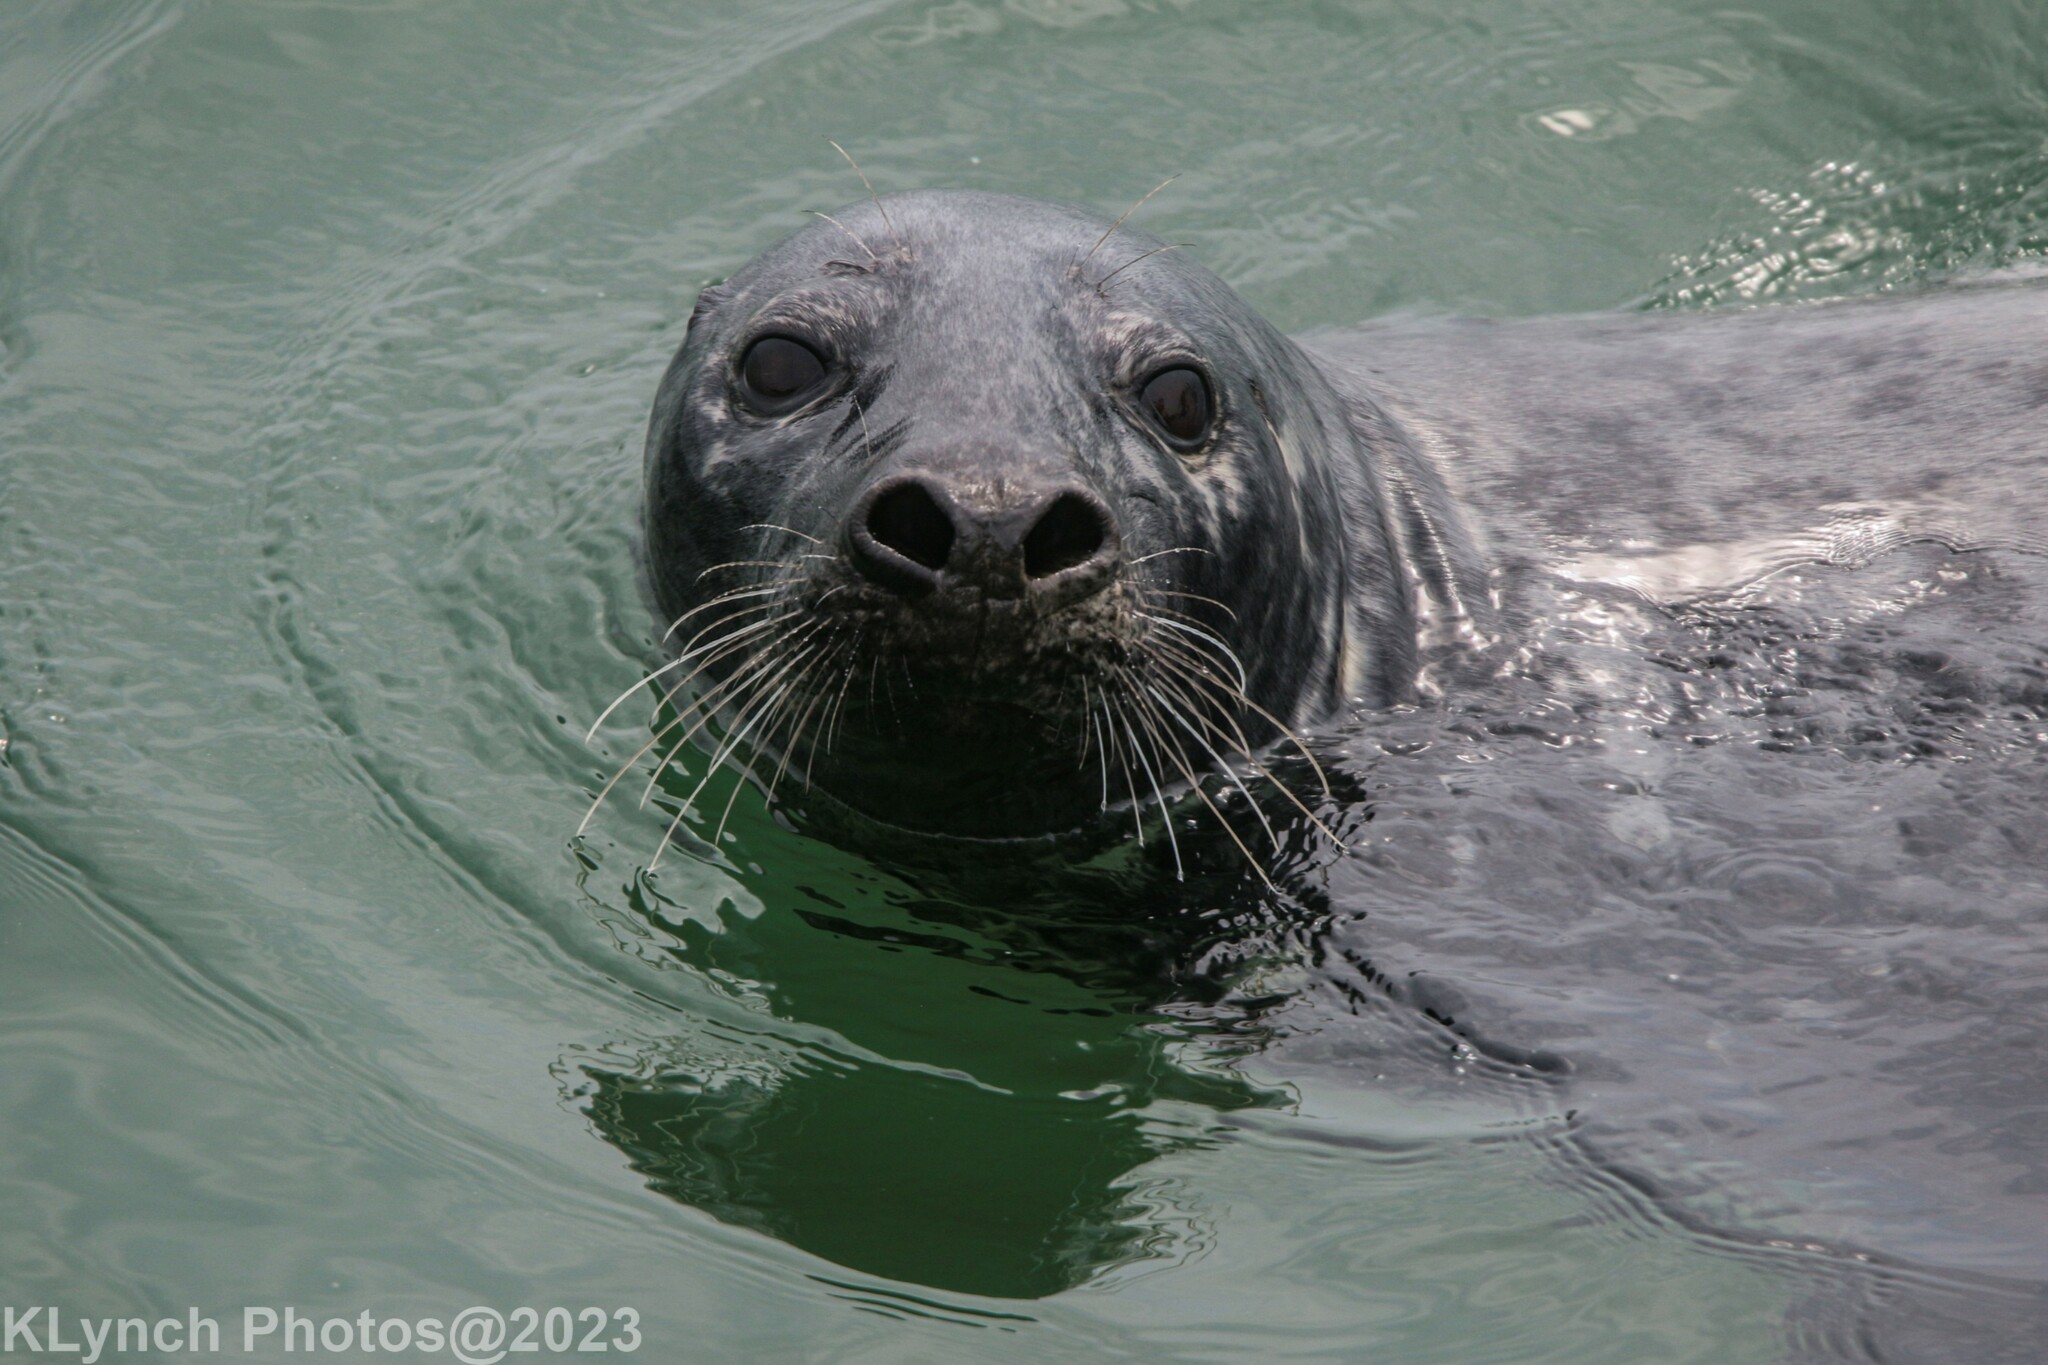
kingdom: Animalia
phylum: Chordata
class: Mammalia
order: Carnivora
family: Phocidae
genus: Halichoerus
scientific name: Halichoerus grypus
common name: Grey seal
